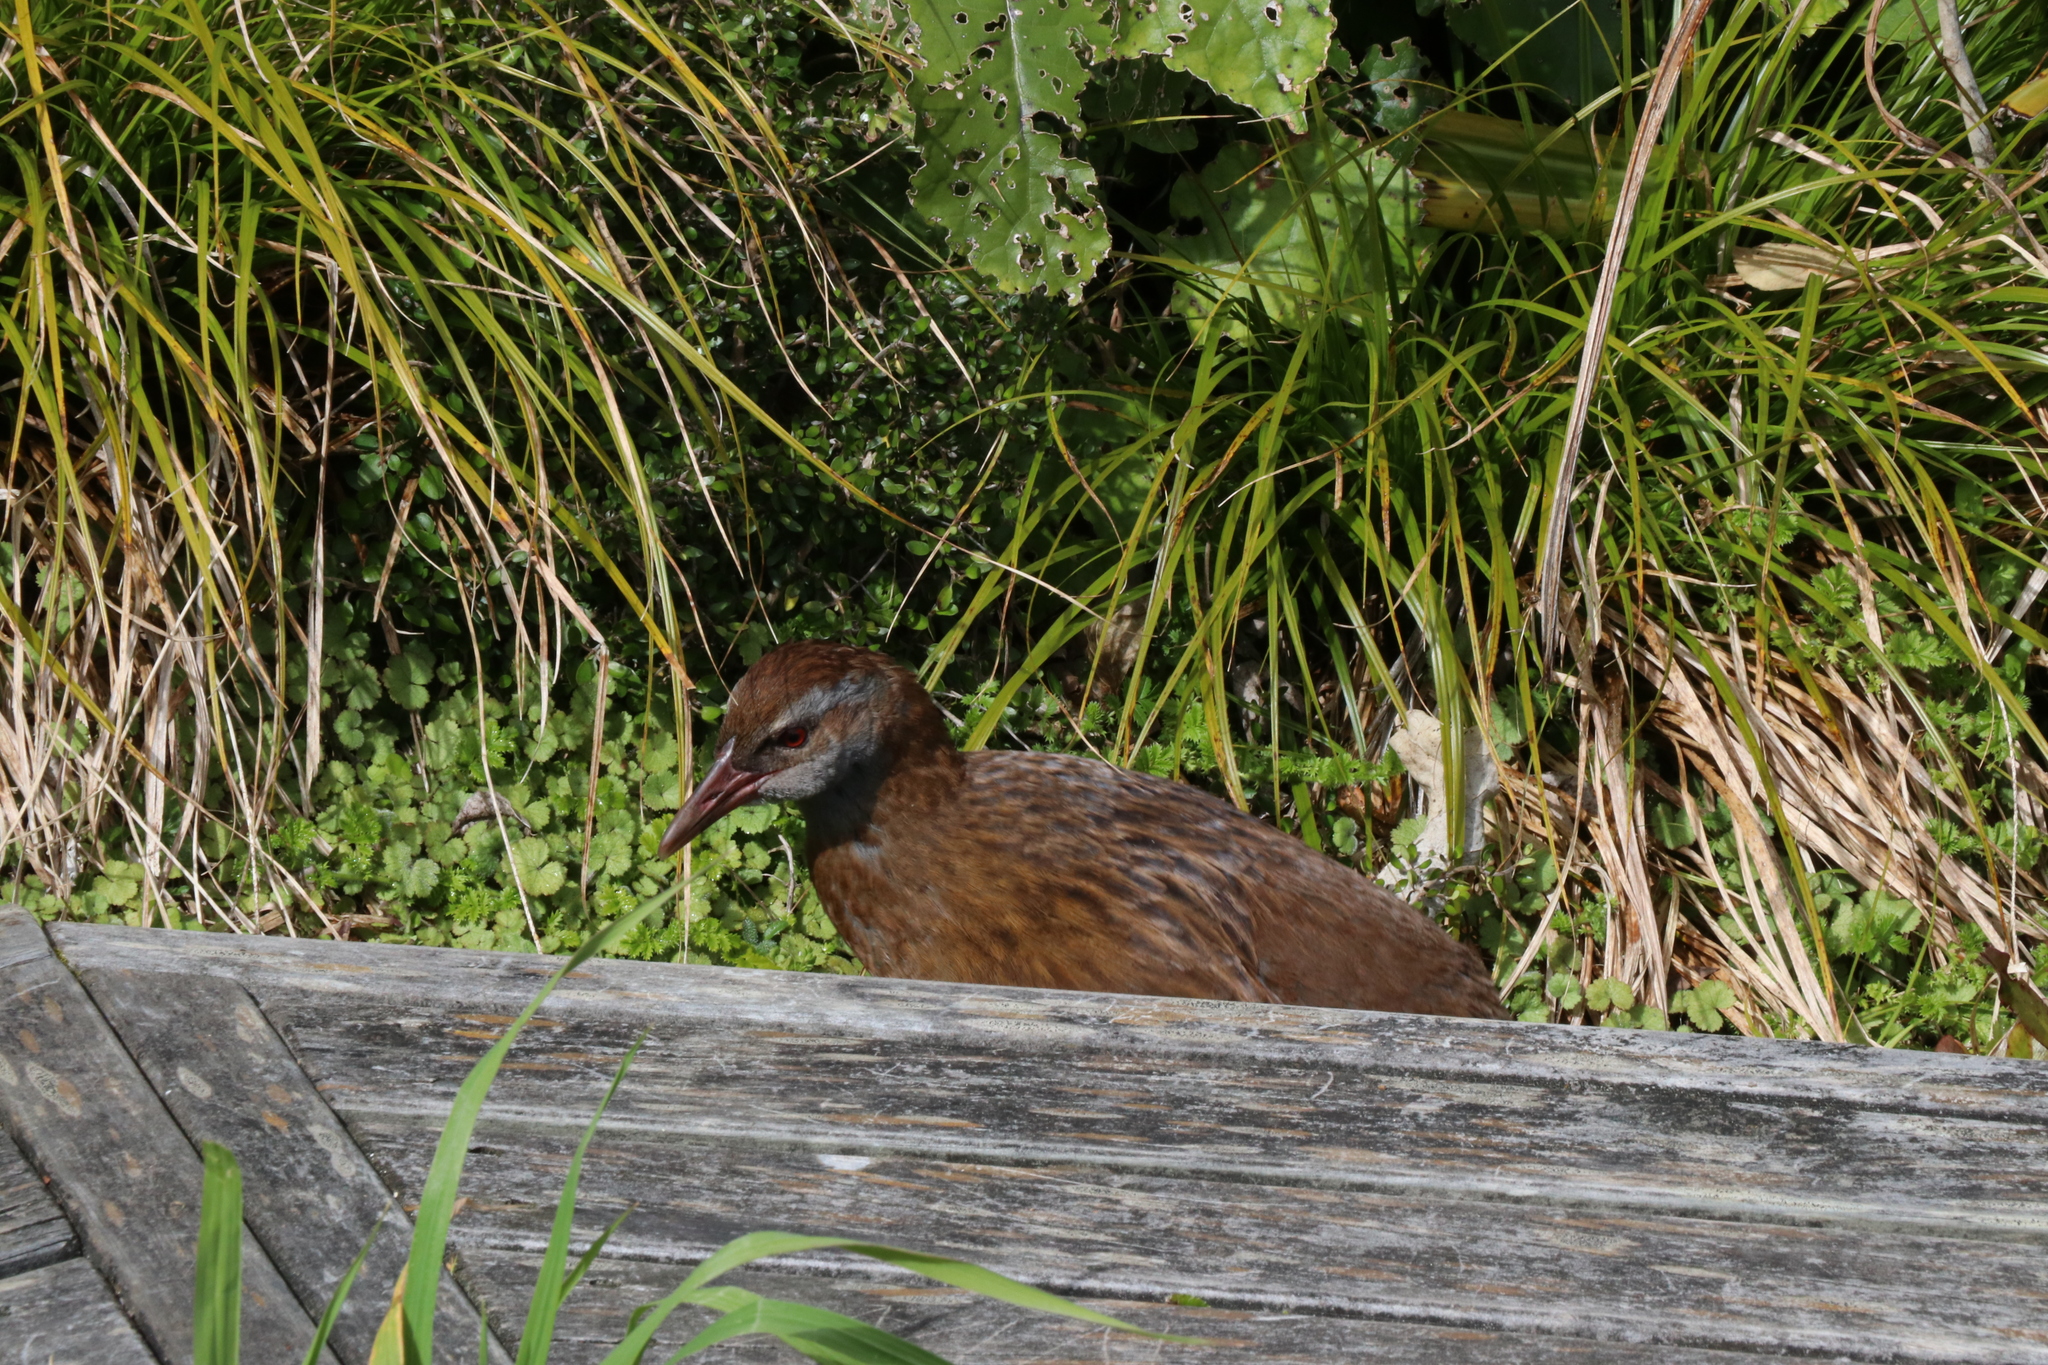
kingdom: Animalia
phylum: Chordata
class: Aves
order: Gruiformes
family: Rallidae
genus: Gallirallus
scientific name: Gallirallus australis
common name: Weka
